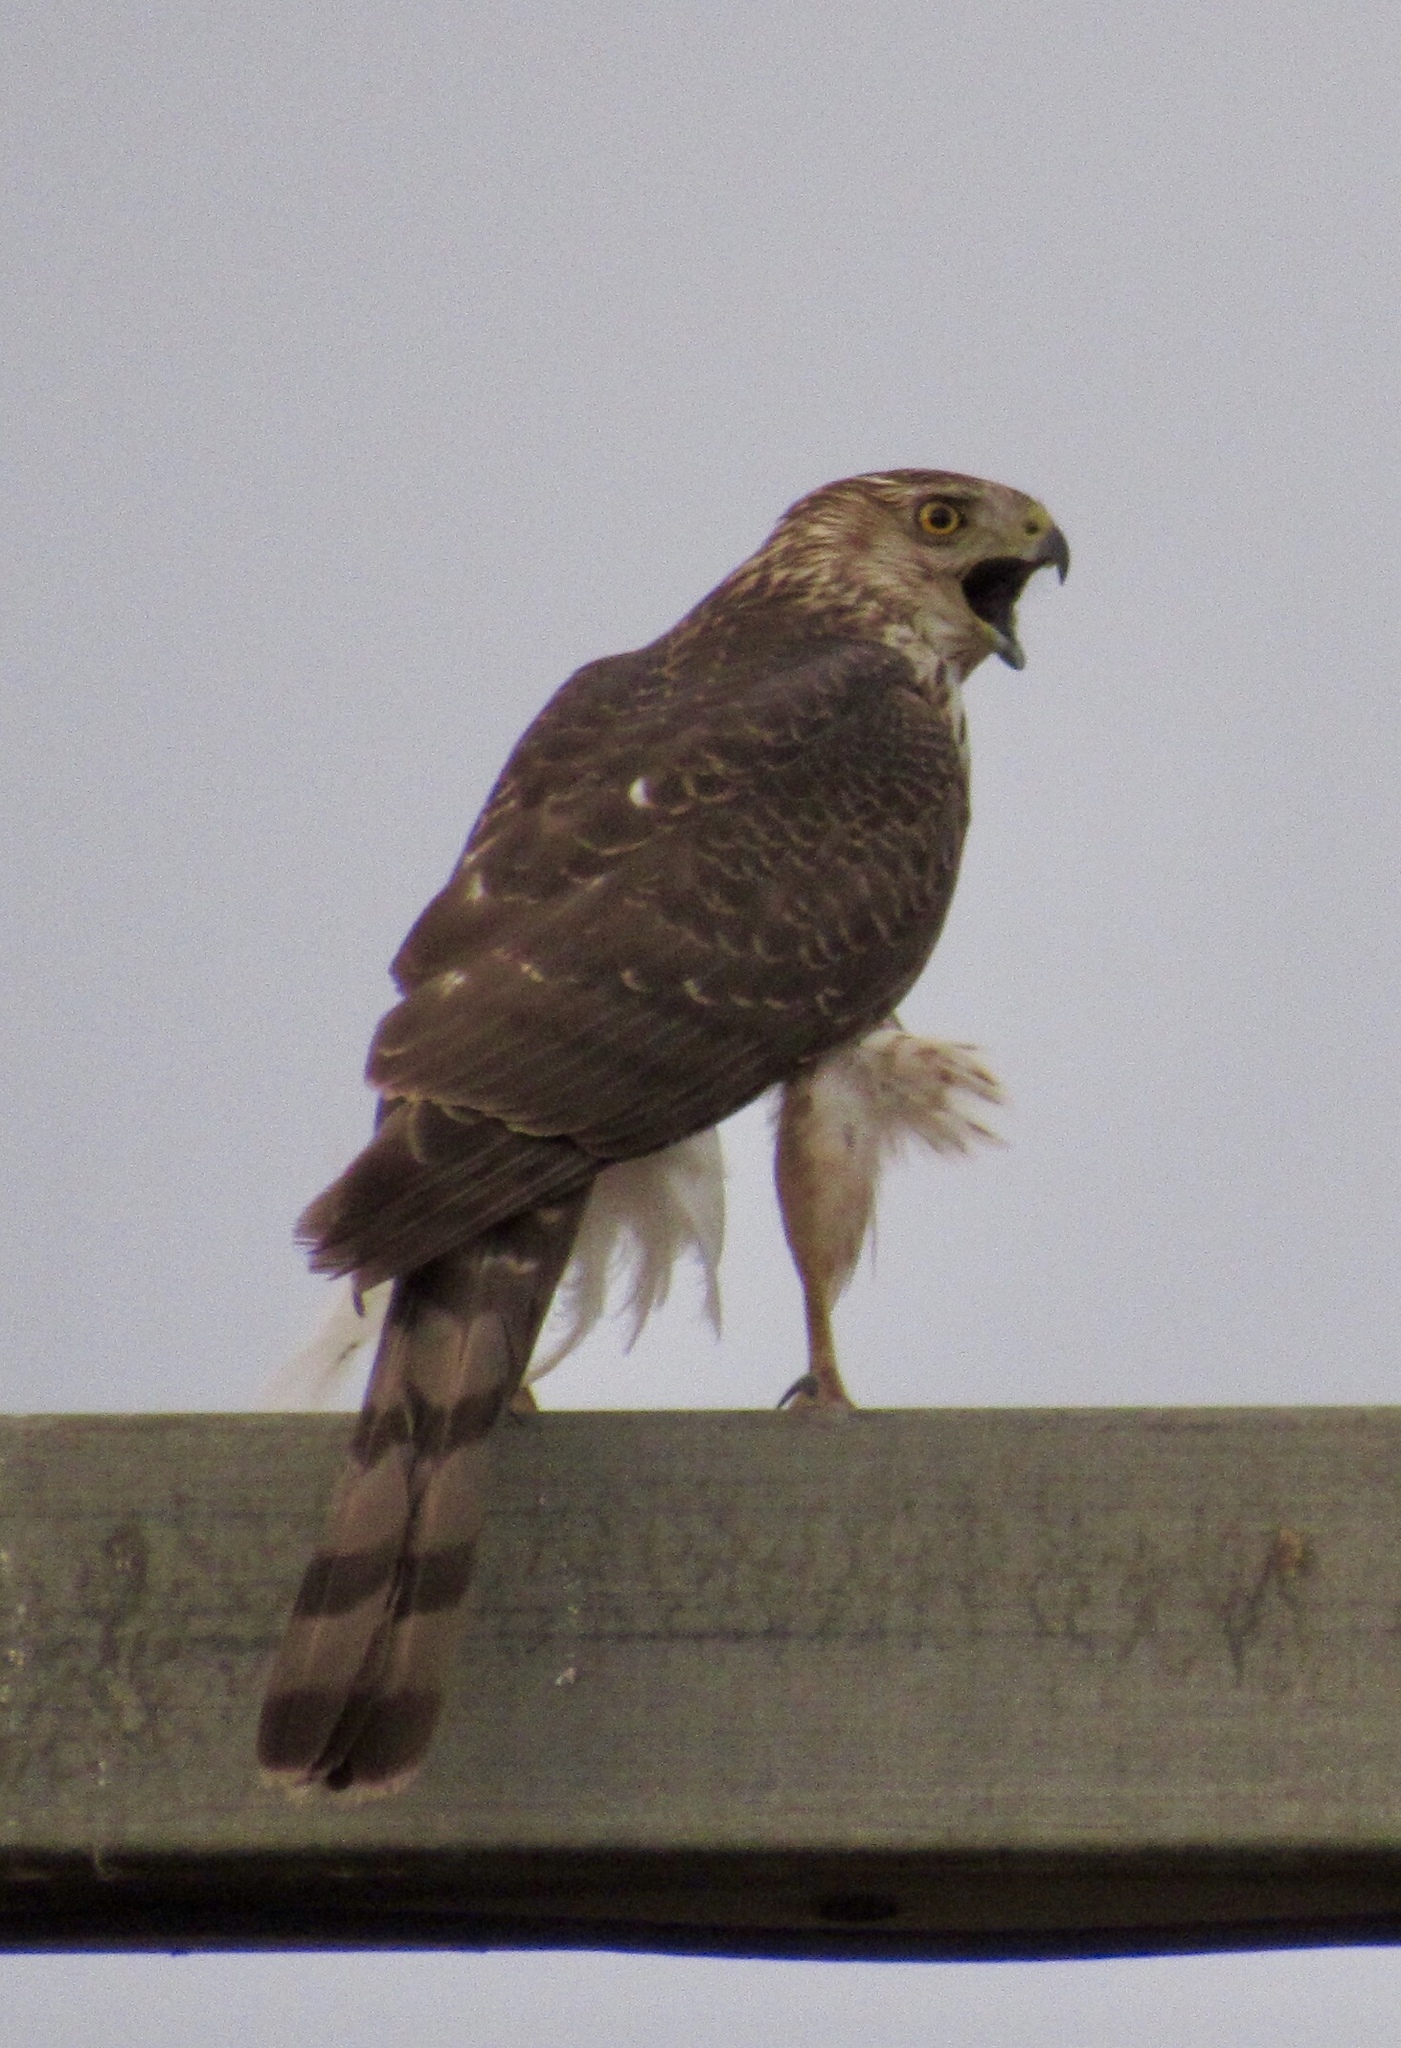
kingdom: Animalia
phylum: Chordata
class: Aves
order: Accipitriformes
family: Accipitridae
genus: Accipiter
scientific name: Accipiter cooperii
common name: Cooper's hawk
